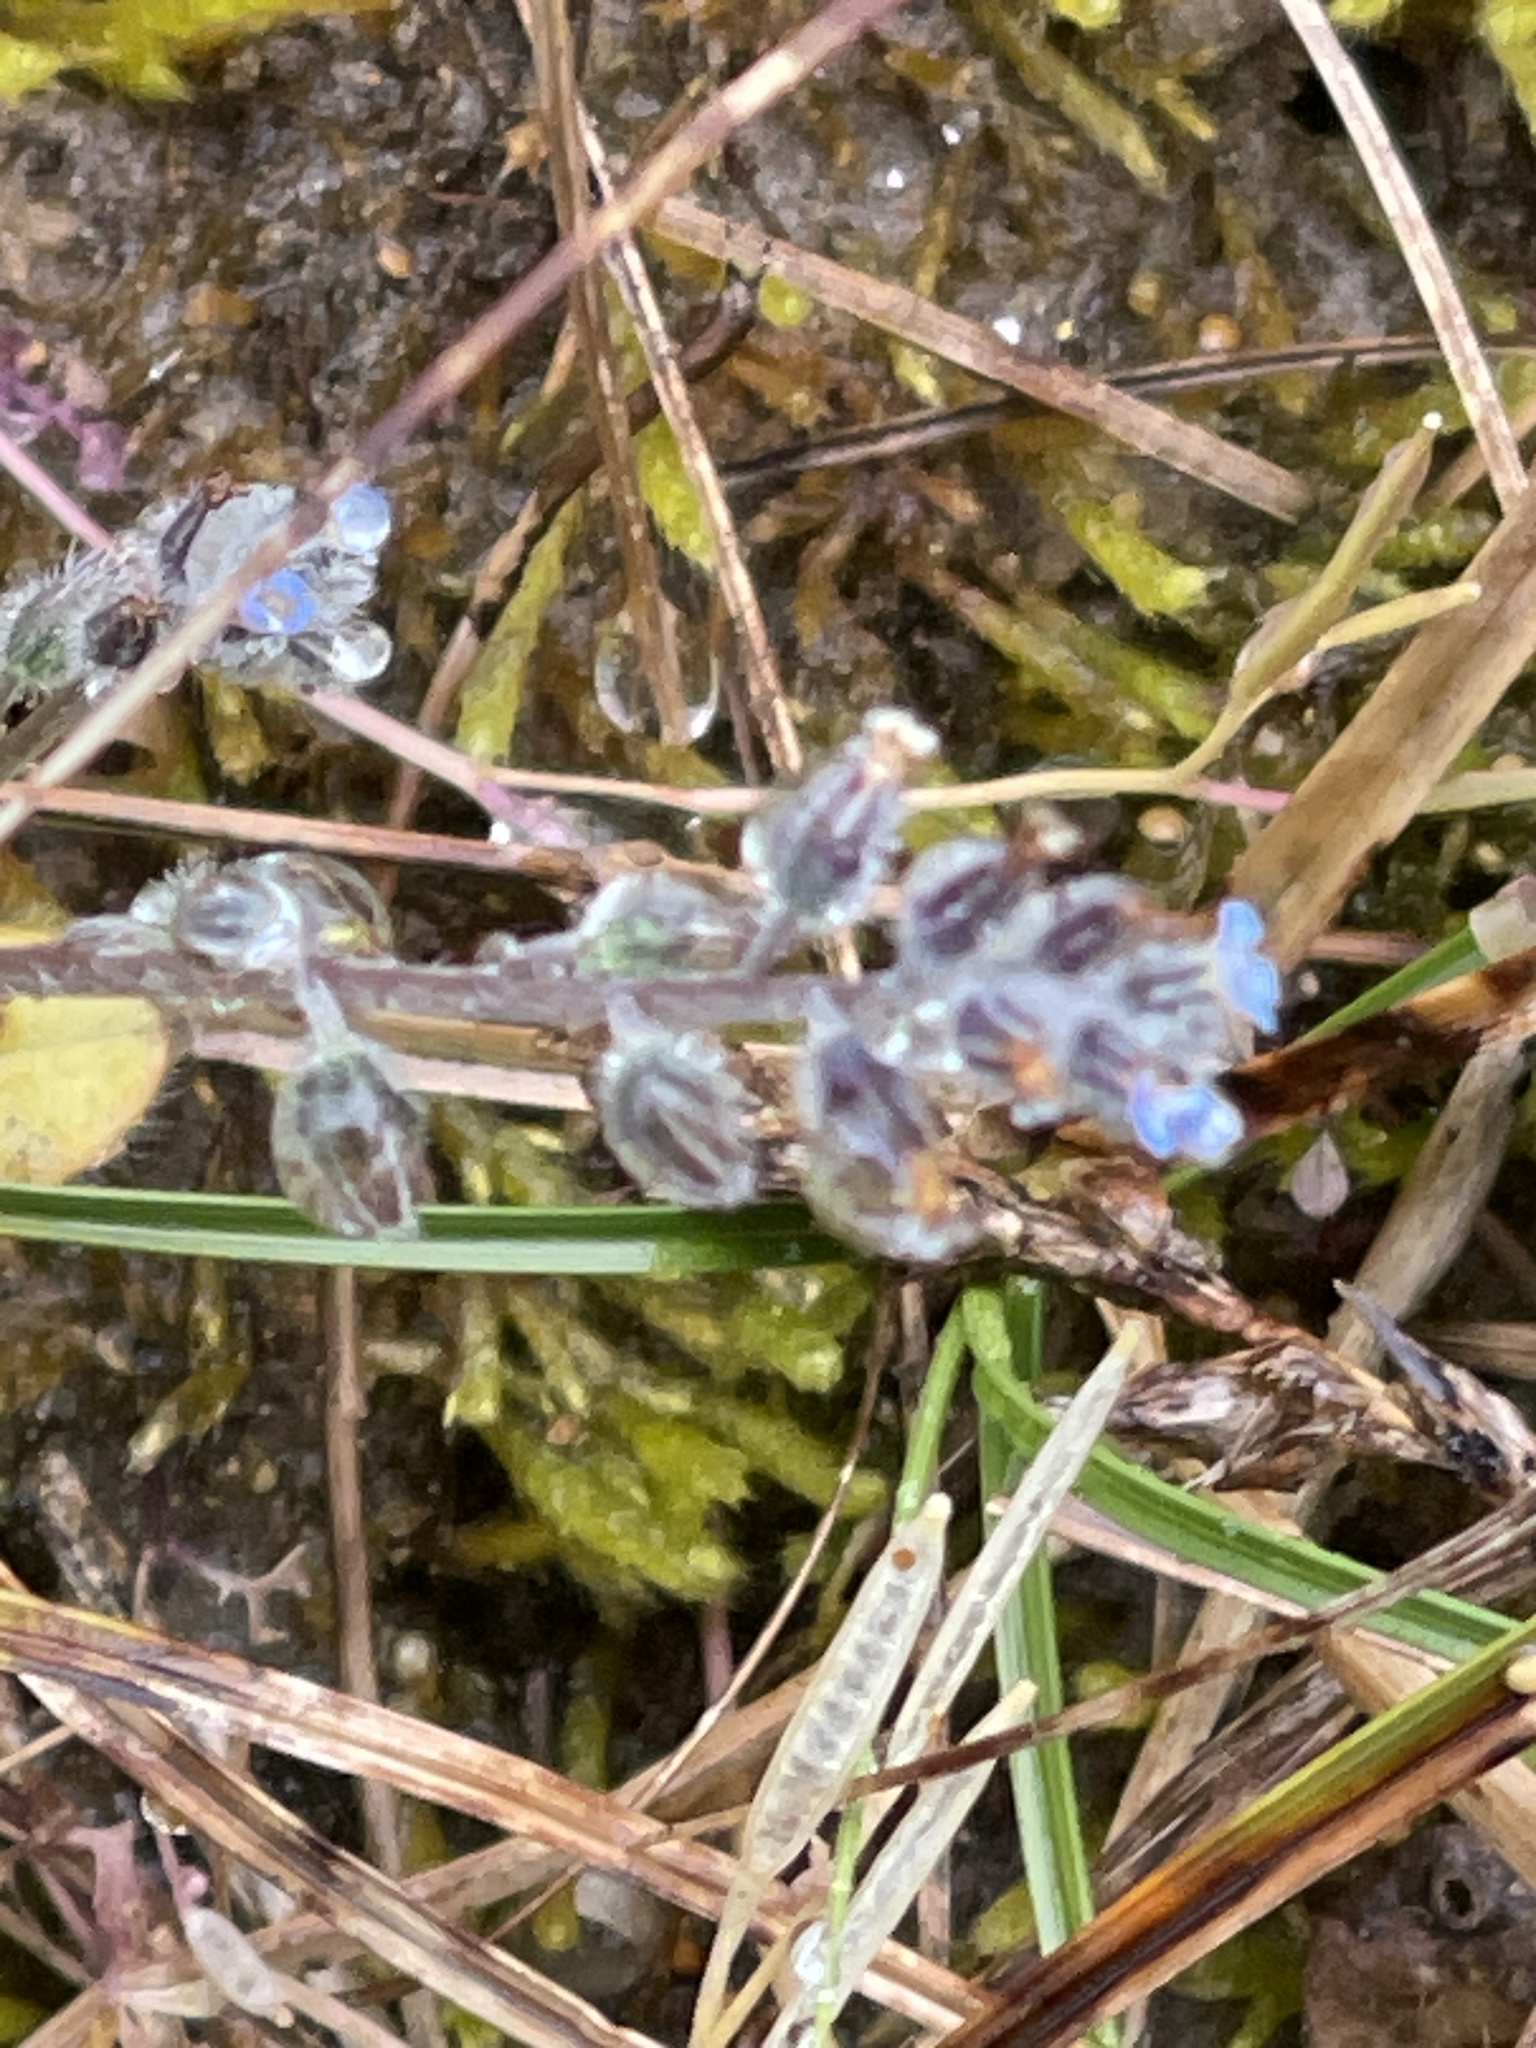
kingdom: Plantae
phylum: Tracheophyta
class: Magnoliopsida
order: Boraginales
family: Boraginaceae
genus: Myosotis
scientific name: Myosotis ramosissima
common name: Early forget-me-not
